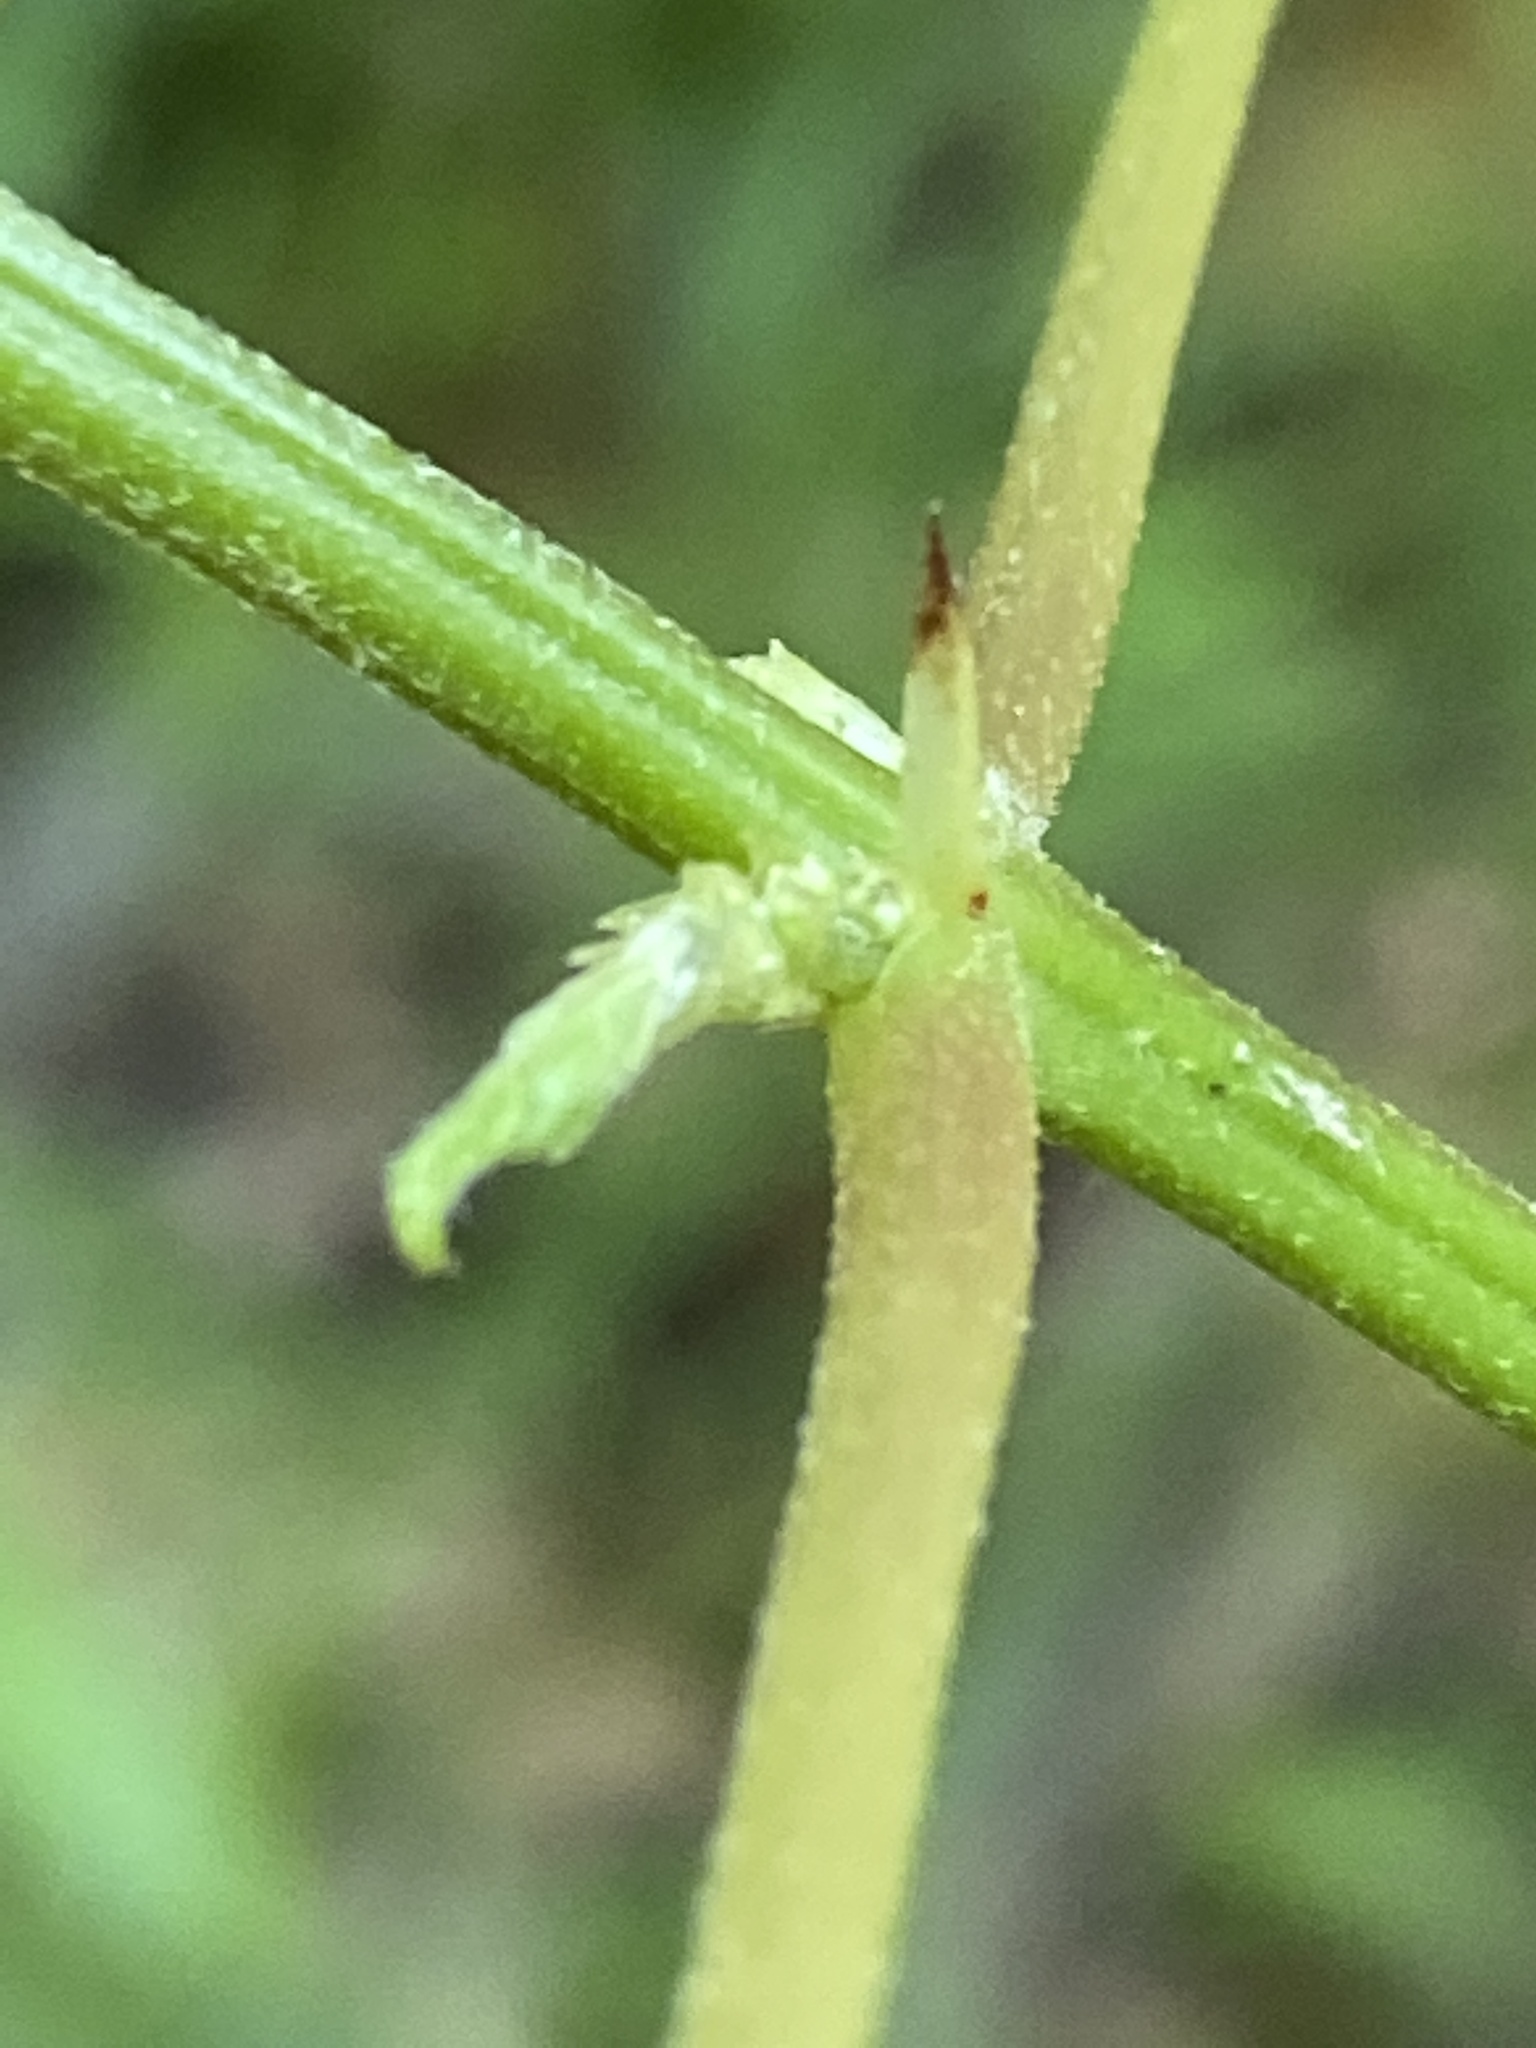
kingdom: Plantae
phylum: Tracheophyta
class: Magnoliopsida
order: Rosales
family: Urticaceae
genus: Boehmeria
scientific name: Boehmeria cylindrica
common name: Bog-hemp
